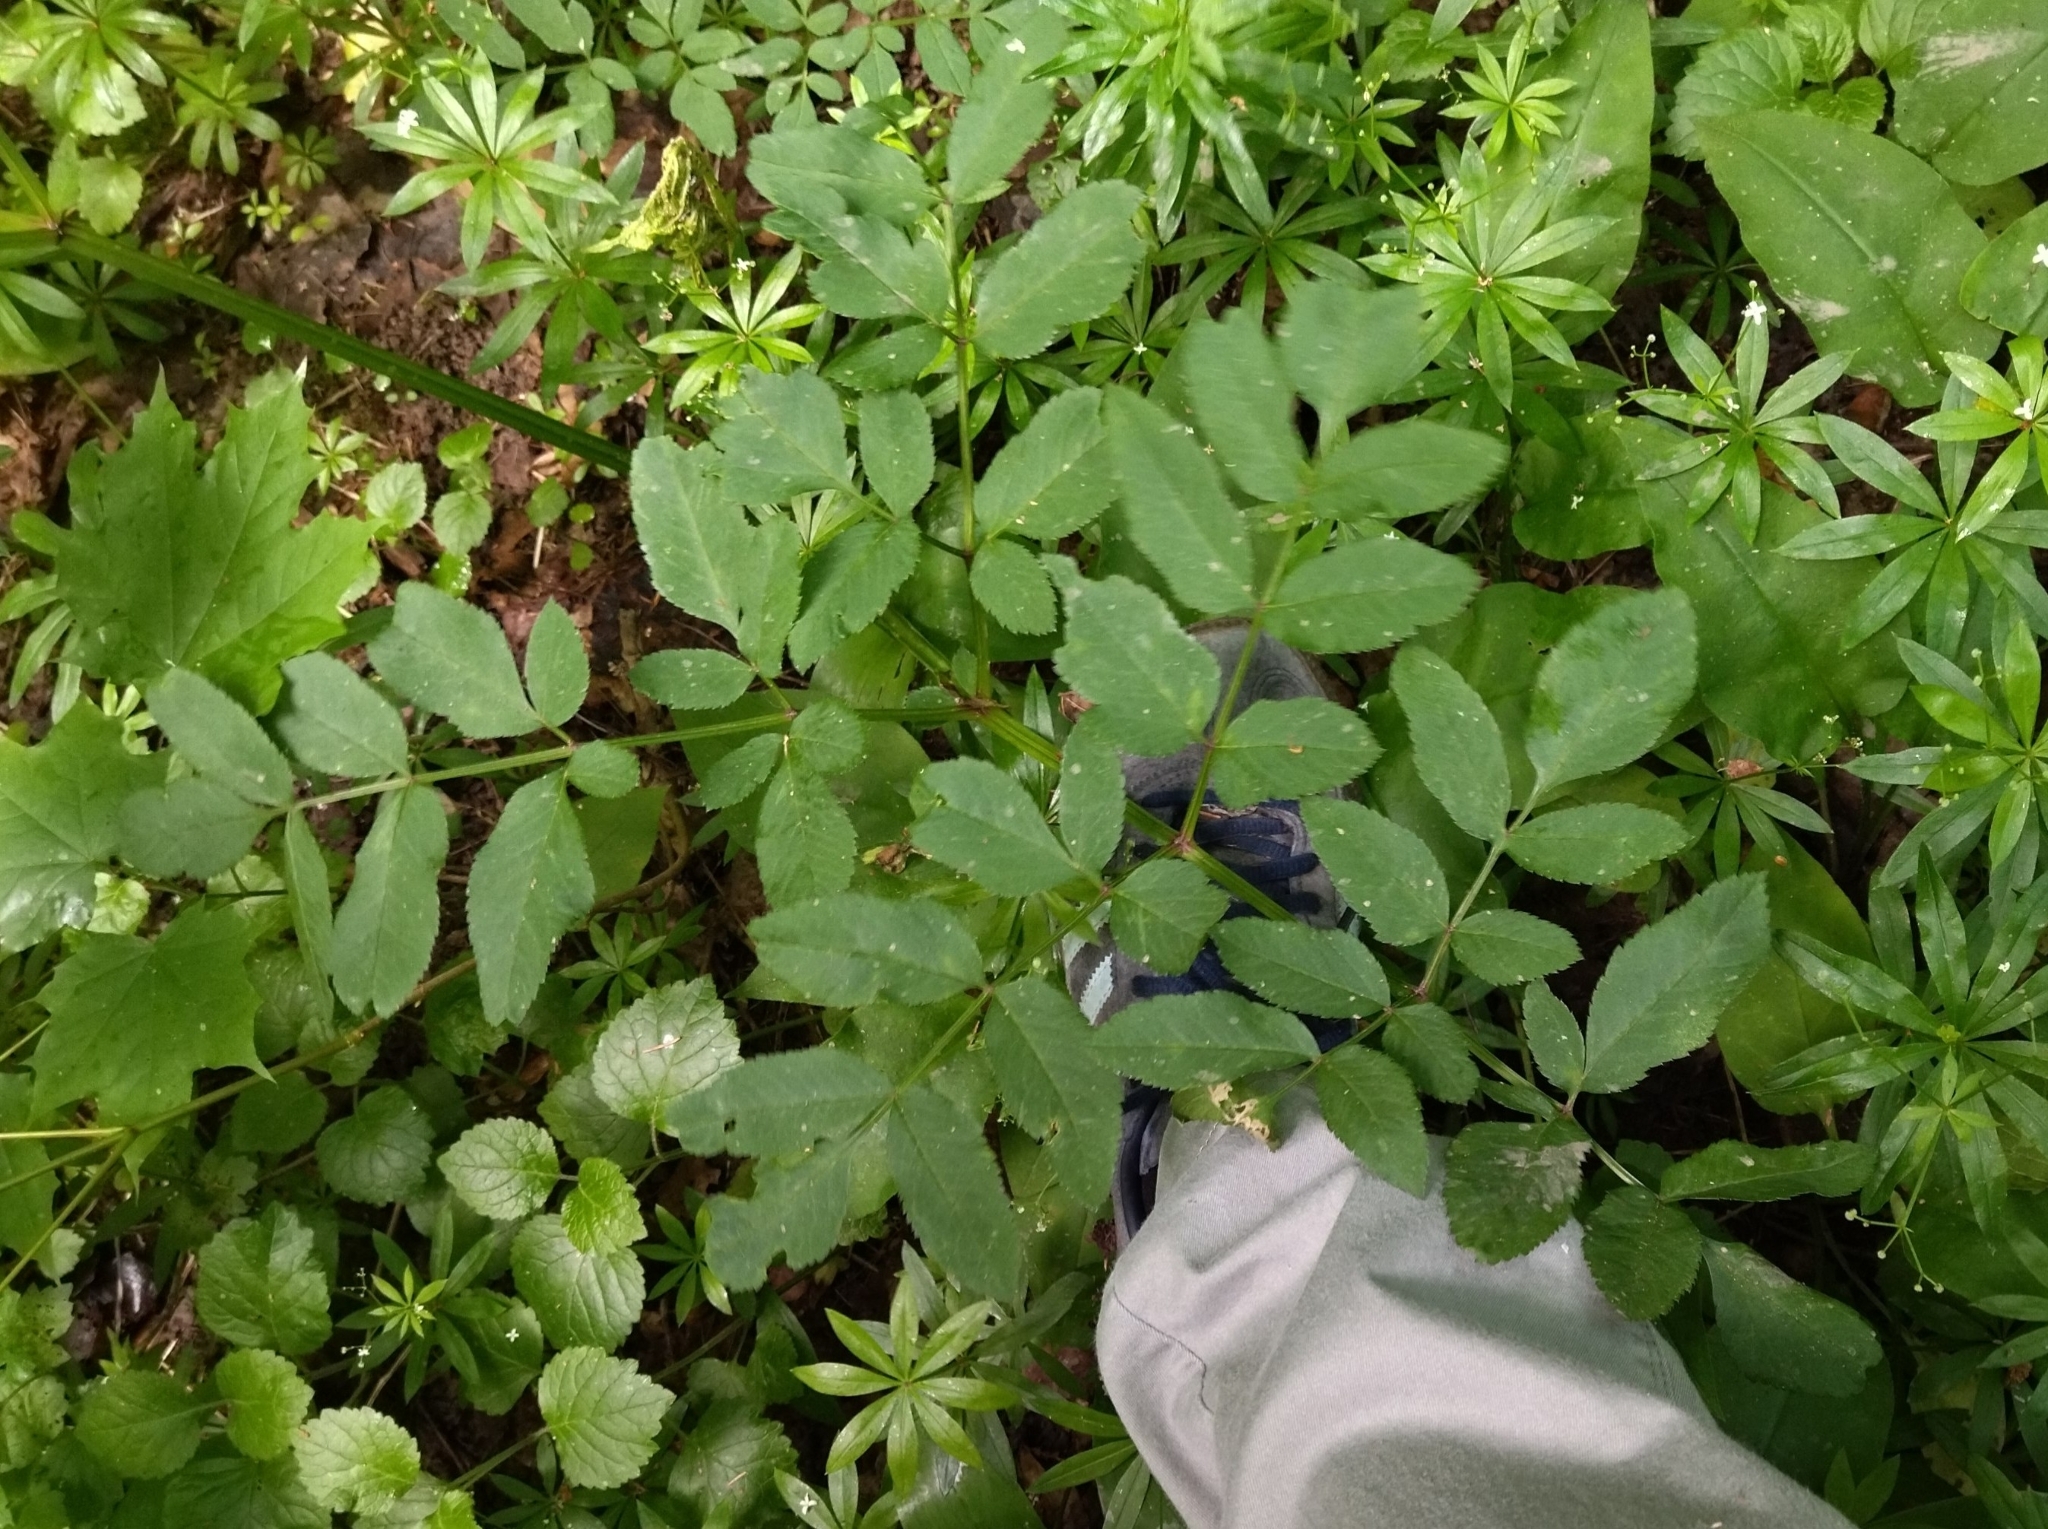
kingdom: Plantae
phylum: Tracheophyta
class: Magnoliopsida
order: Apiales
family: Apiaceae
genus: Angelica
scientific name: Angelica sylvestris
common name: Wild angelica
